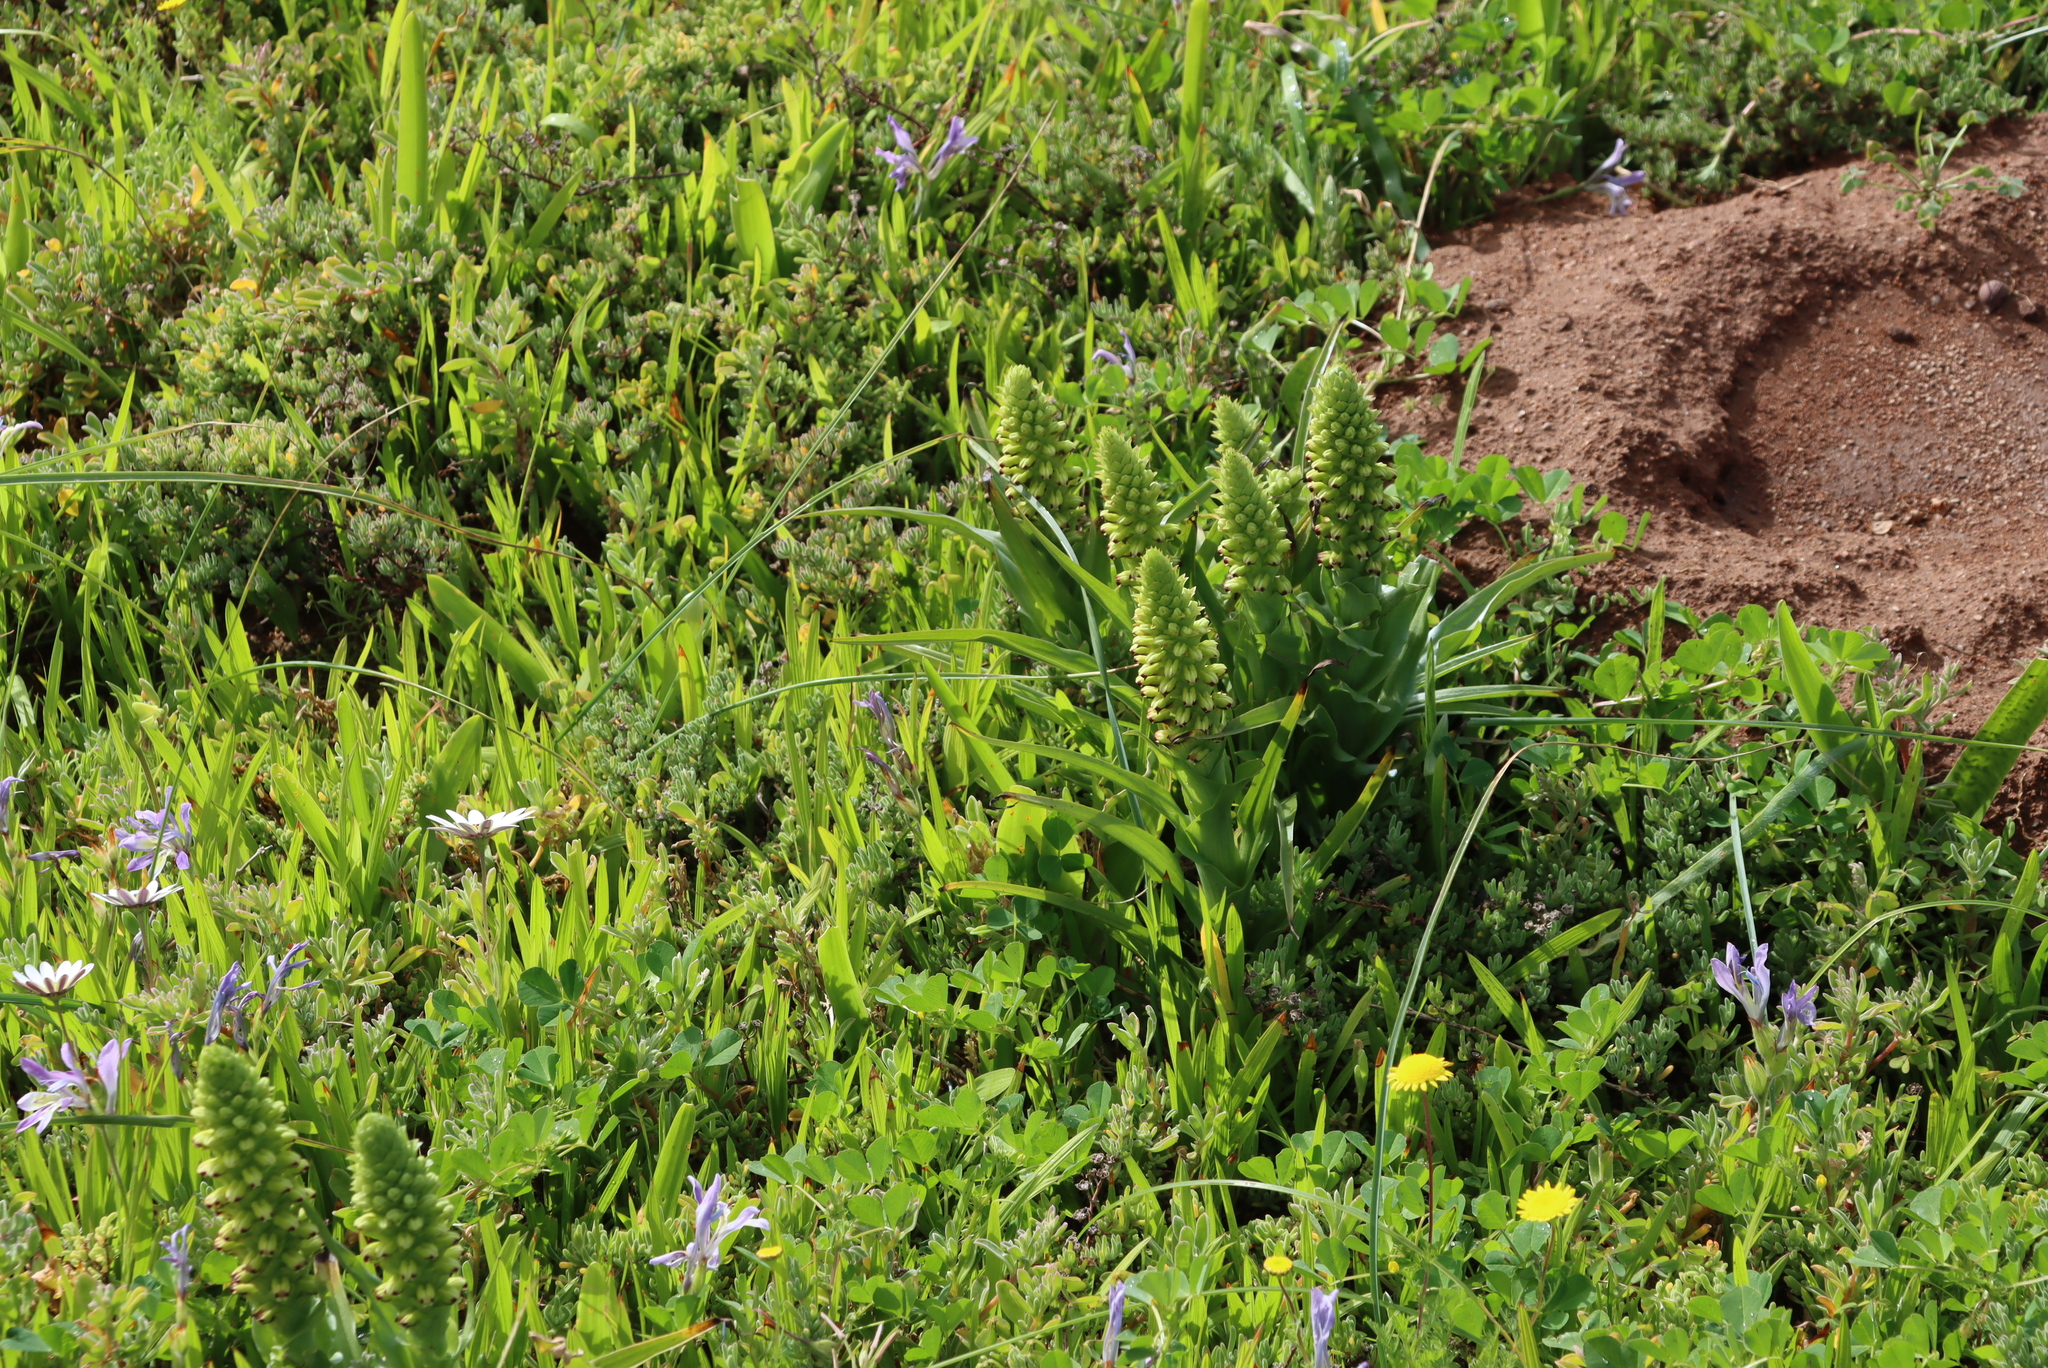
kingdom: Plantae
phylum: Tracheophyta
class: Liliopsida
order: Asparagales
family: Orchidaceae
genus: Corycium
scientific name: Corycium orobanchoides
